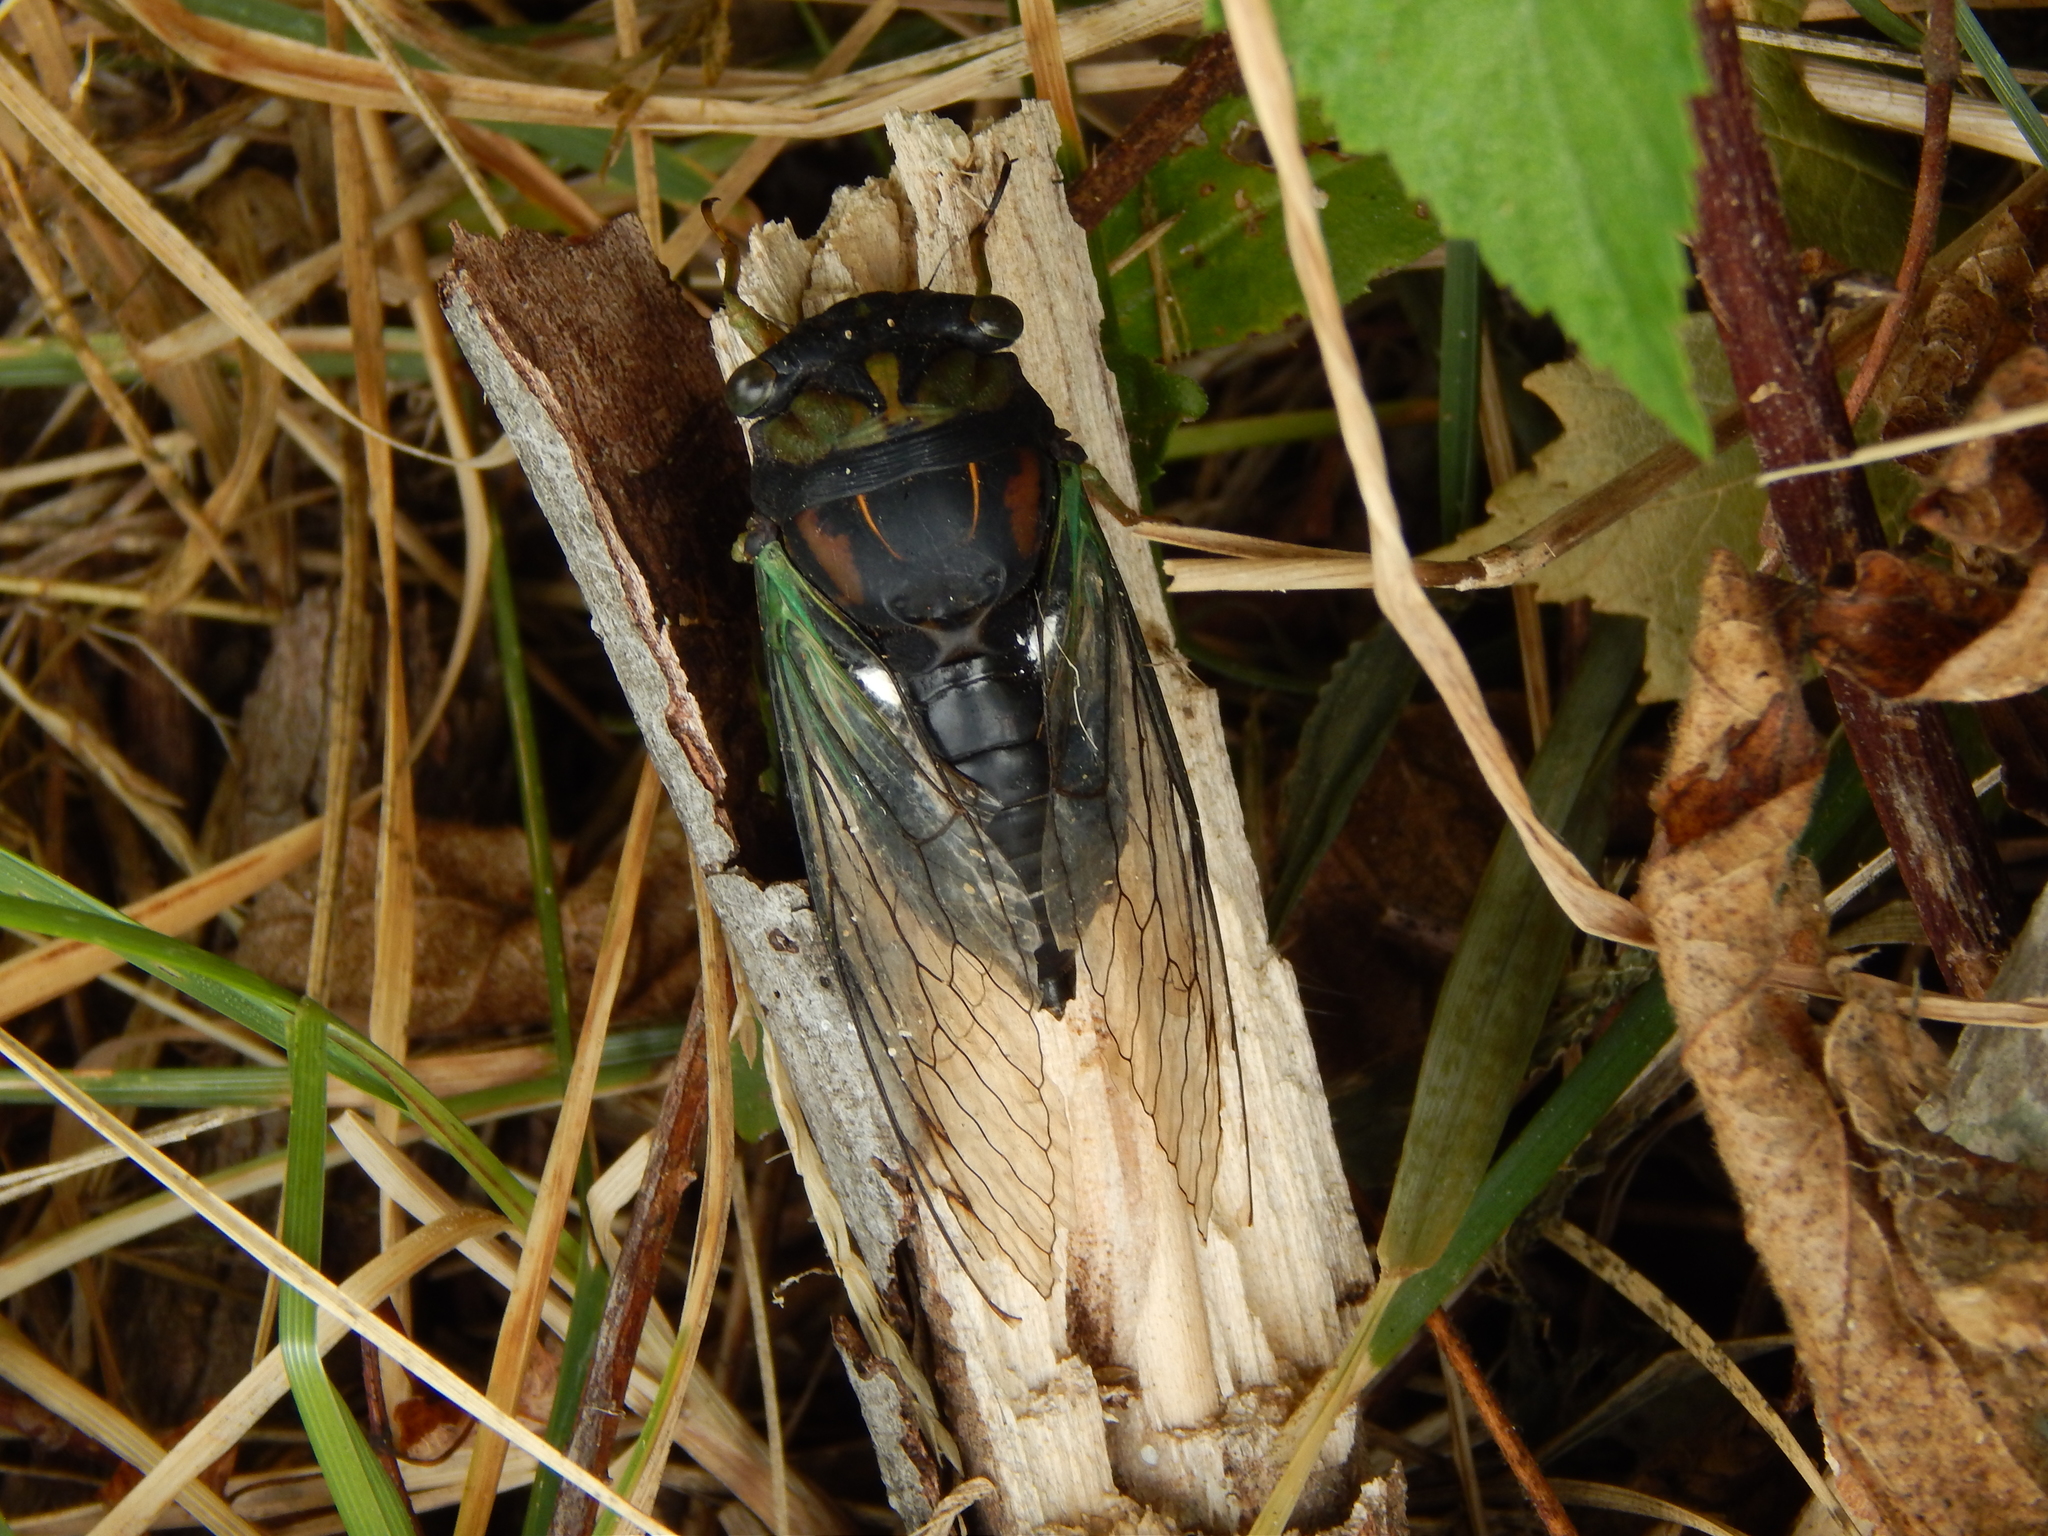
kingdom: Animalia
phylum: Arthropoda
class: Insecta
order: Hemiptera
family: Cicadidae
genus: Neotibicen
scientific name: Neotibicen tibicen
